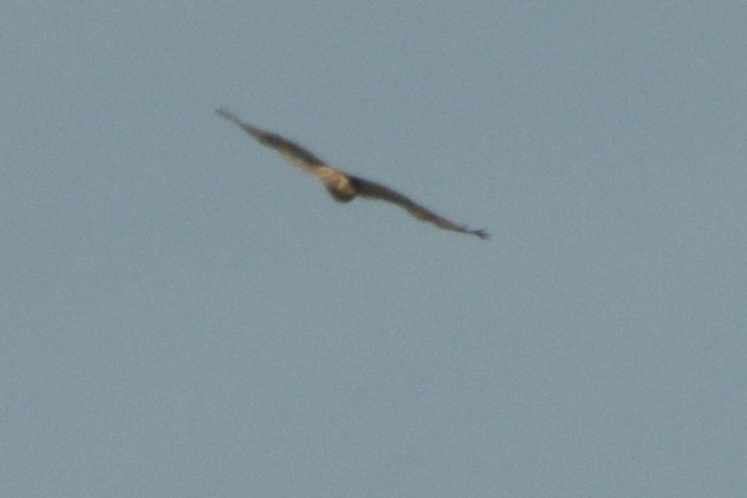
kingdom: Animalia
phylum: Chordata
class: Aves
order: Accipitriformes
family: Accipitridae
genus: Buteo
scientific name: Buteo jamaicensis
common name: Red-tailed hawk
